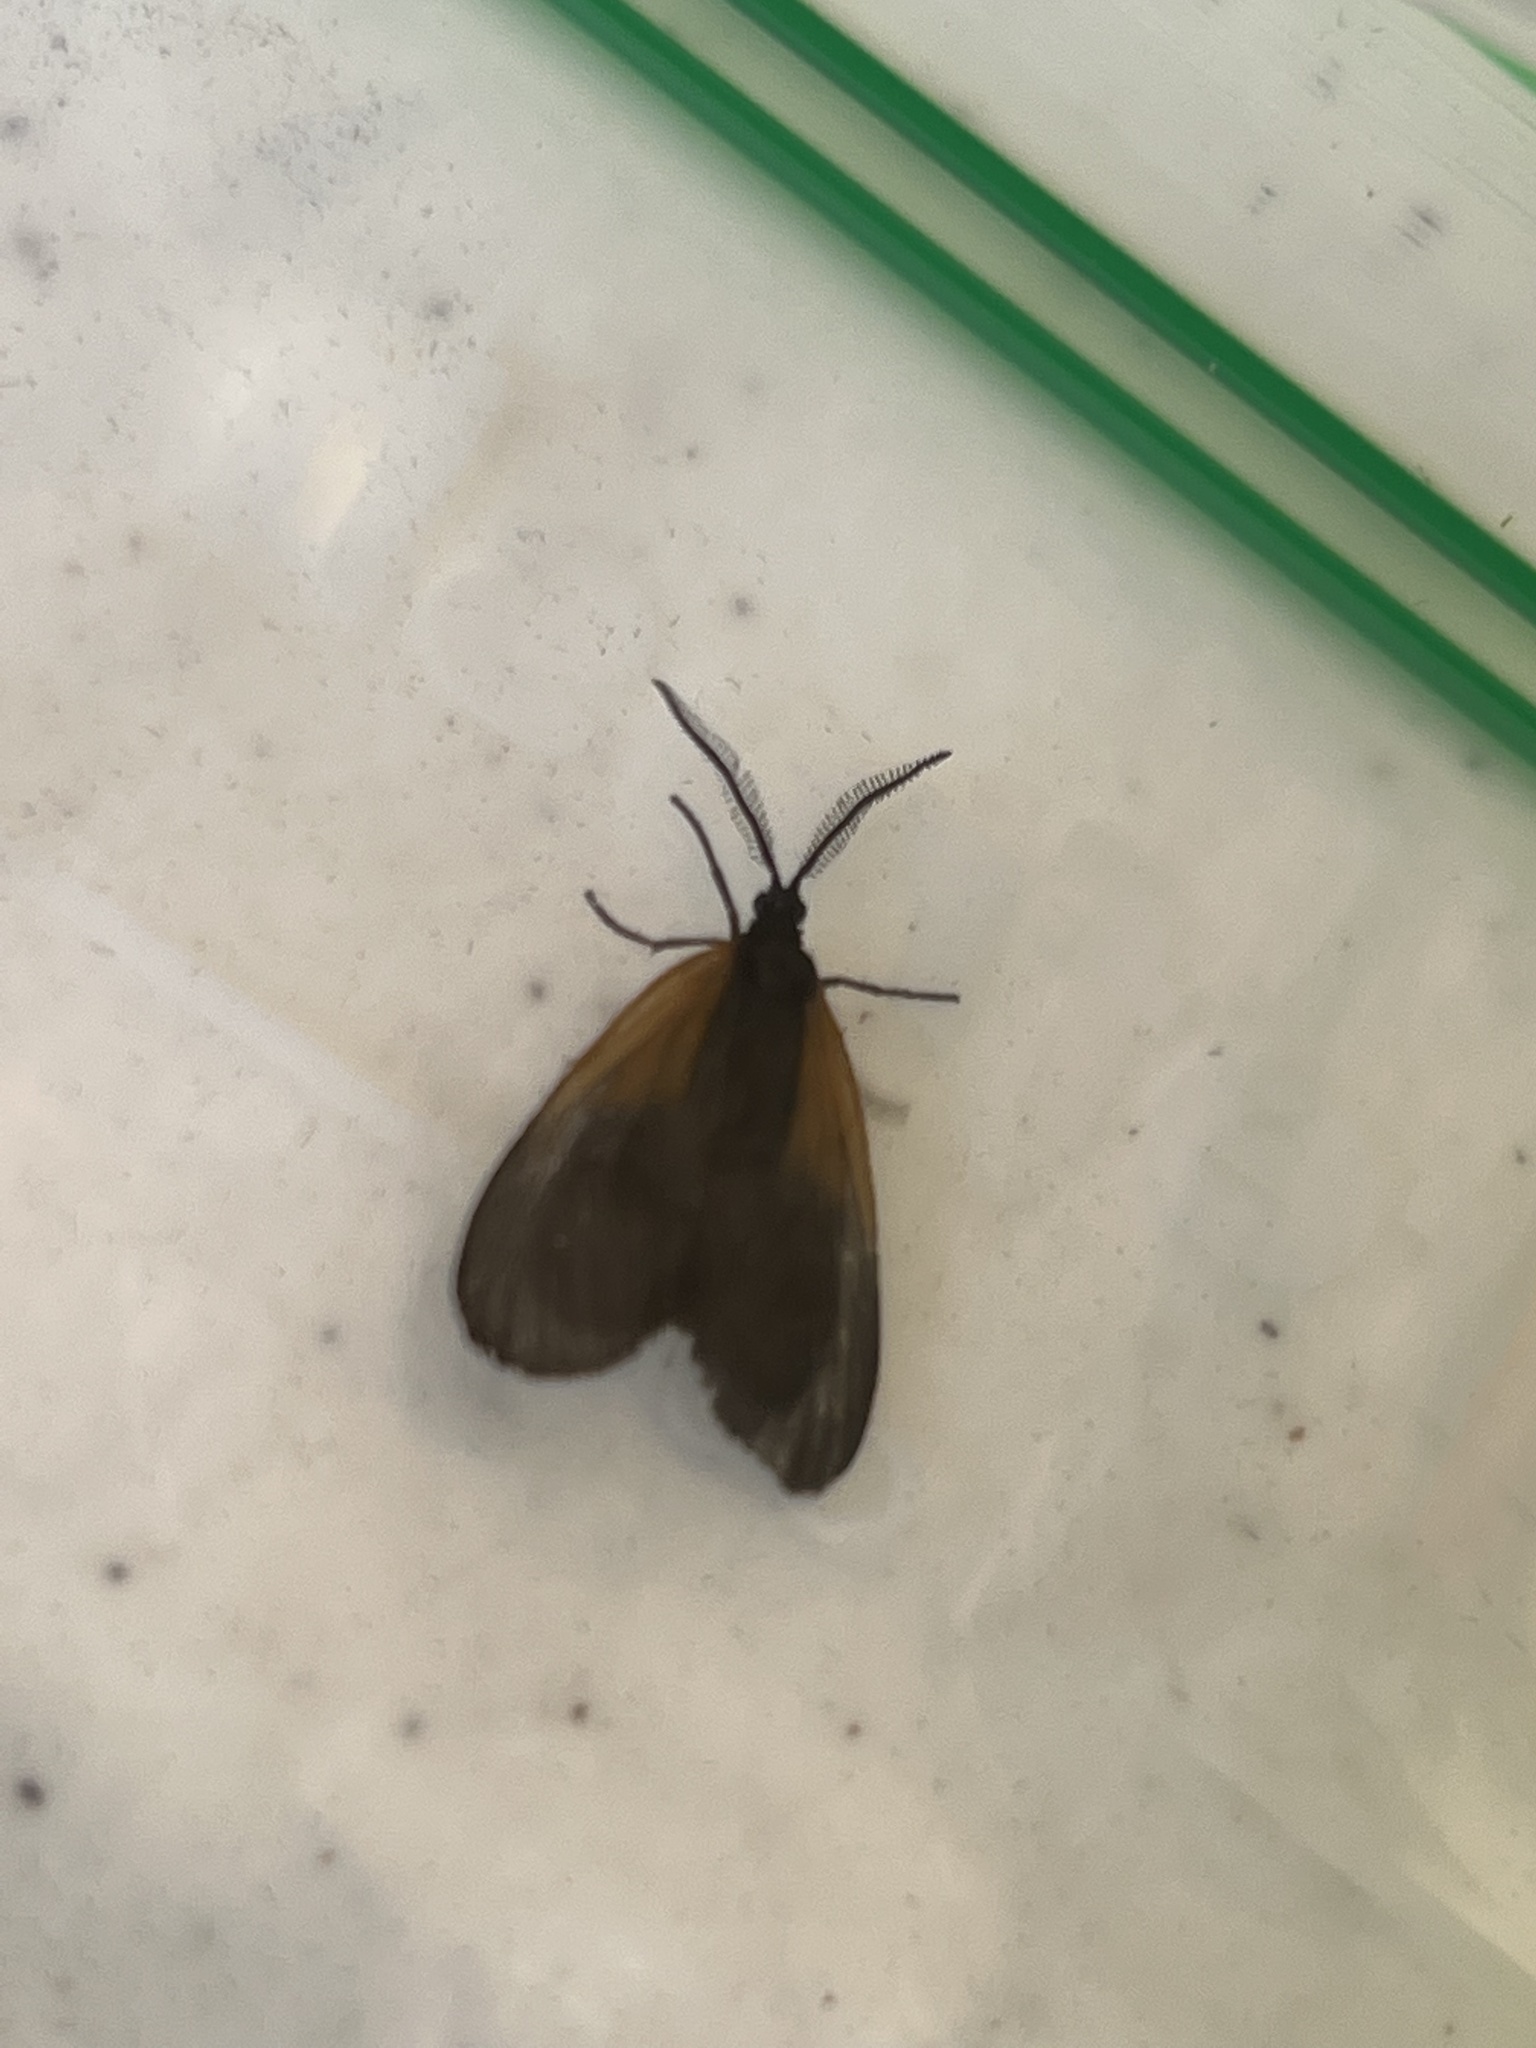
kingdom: Animalia
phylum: Arthropoda
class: Insecta
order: Lepidoptera
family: Zygaenidae
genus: Malthaca
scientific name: Malthaca dimidiata
